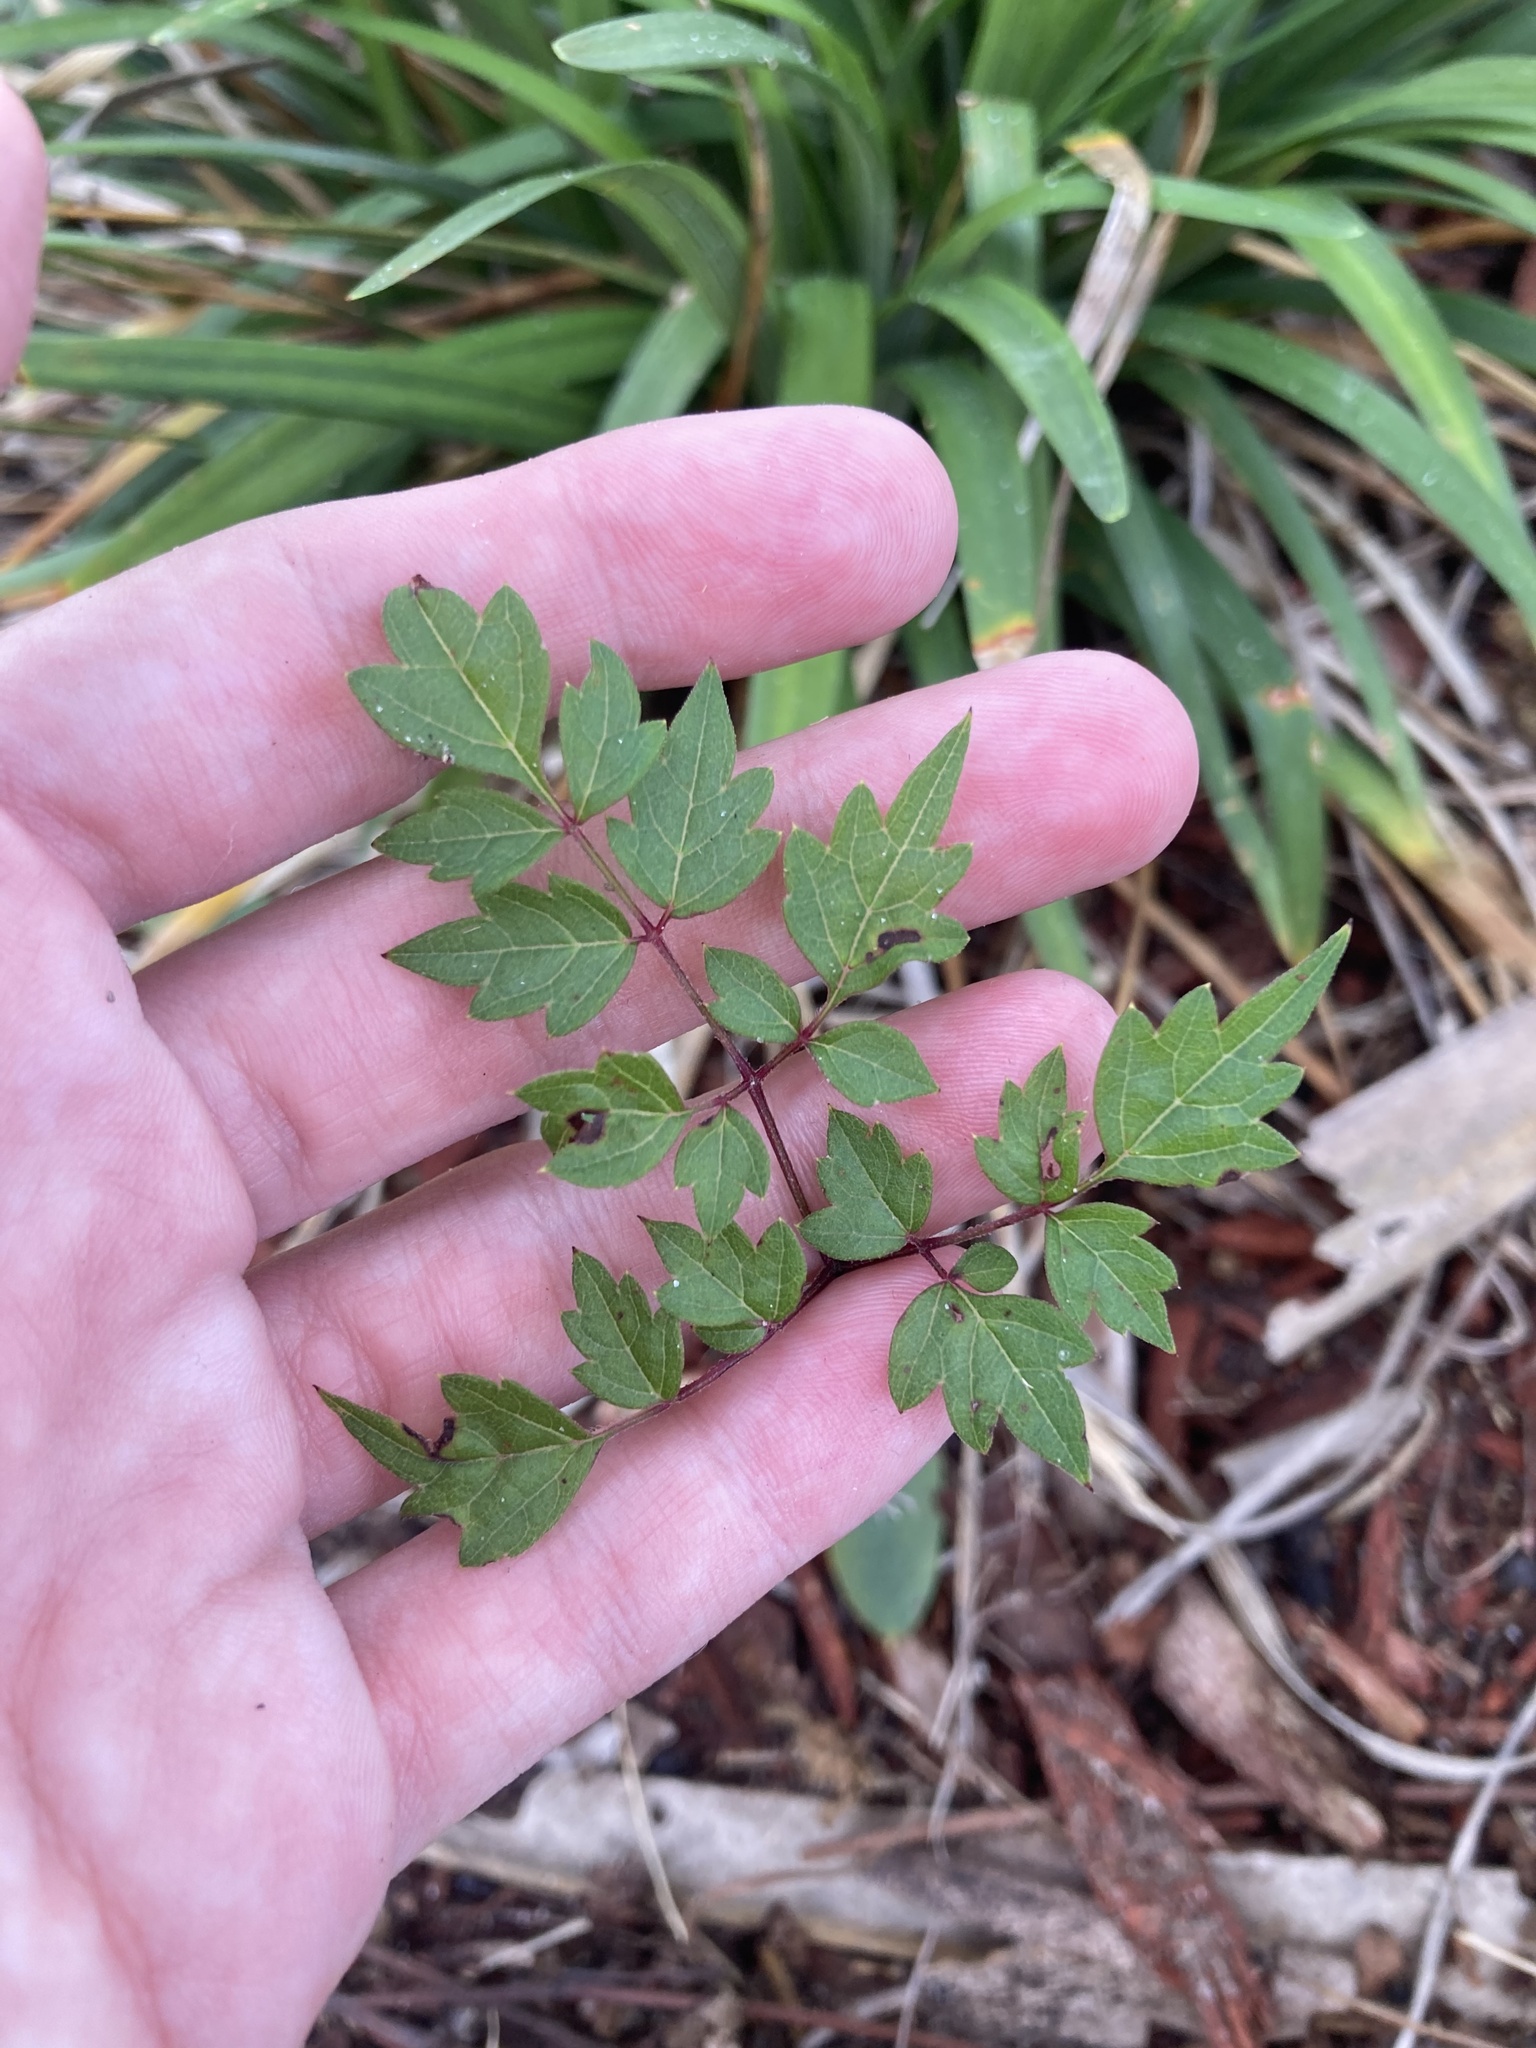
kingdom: Plantae
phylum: Tracheophyta
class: Magnoliopsida
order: Vitales
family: Vitaceae
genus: Nekemias
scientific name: Nekemias arborea
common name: Peppervine
